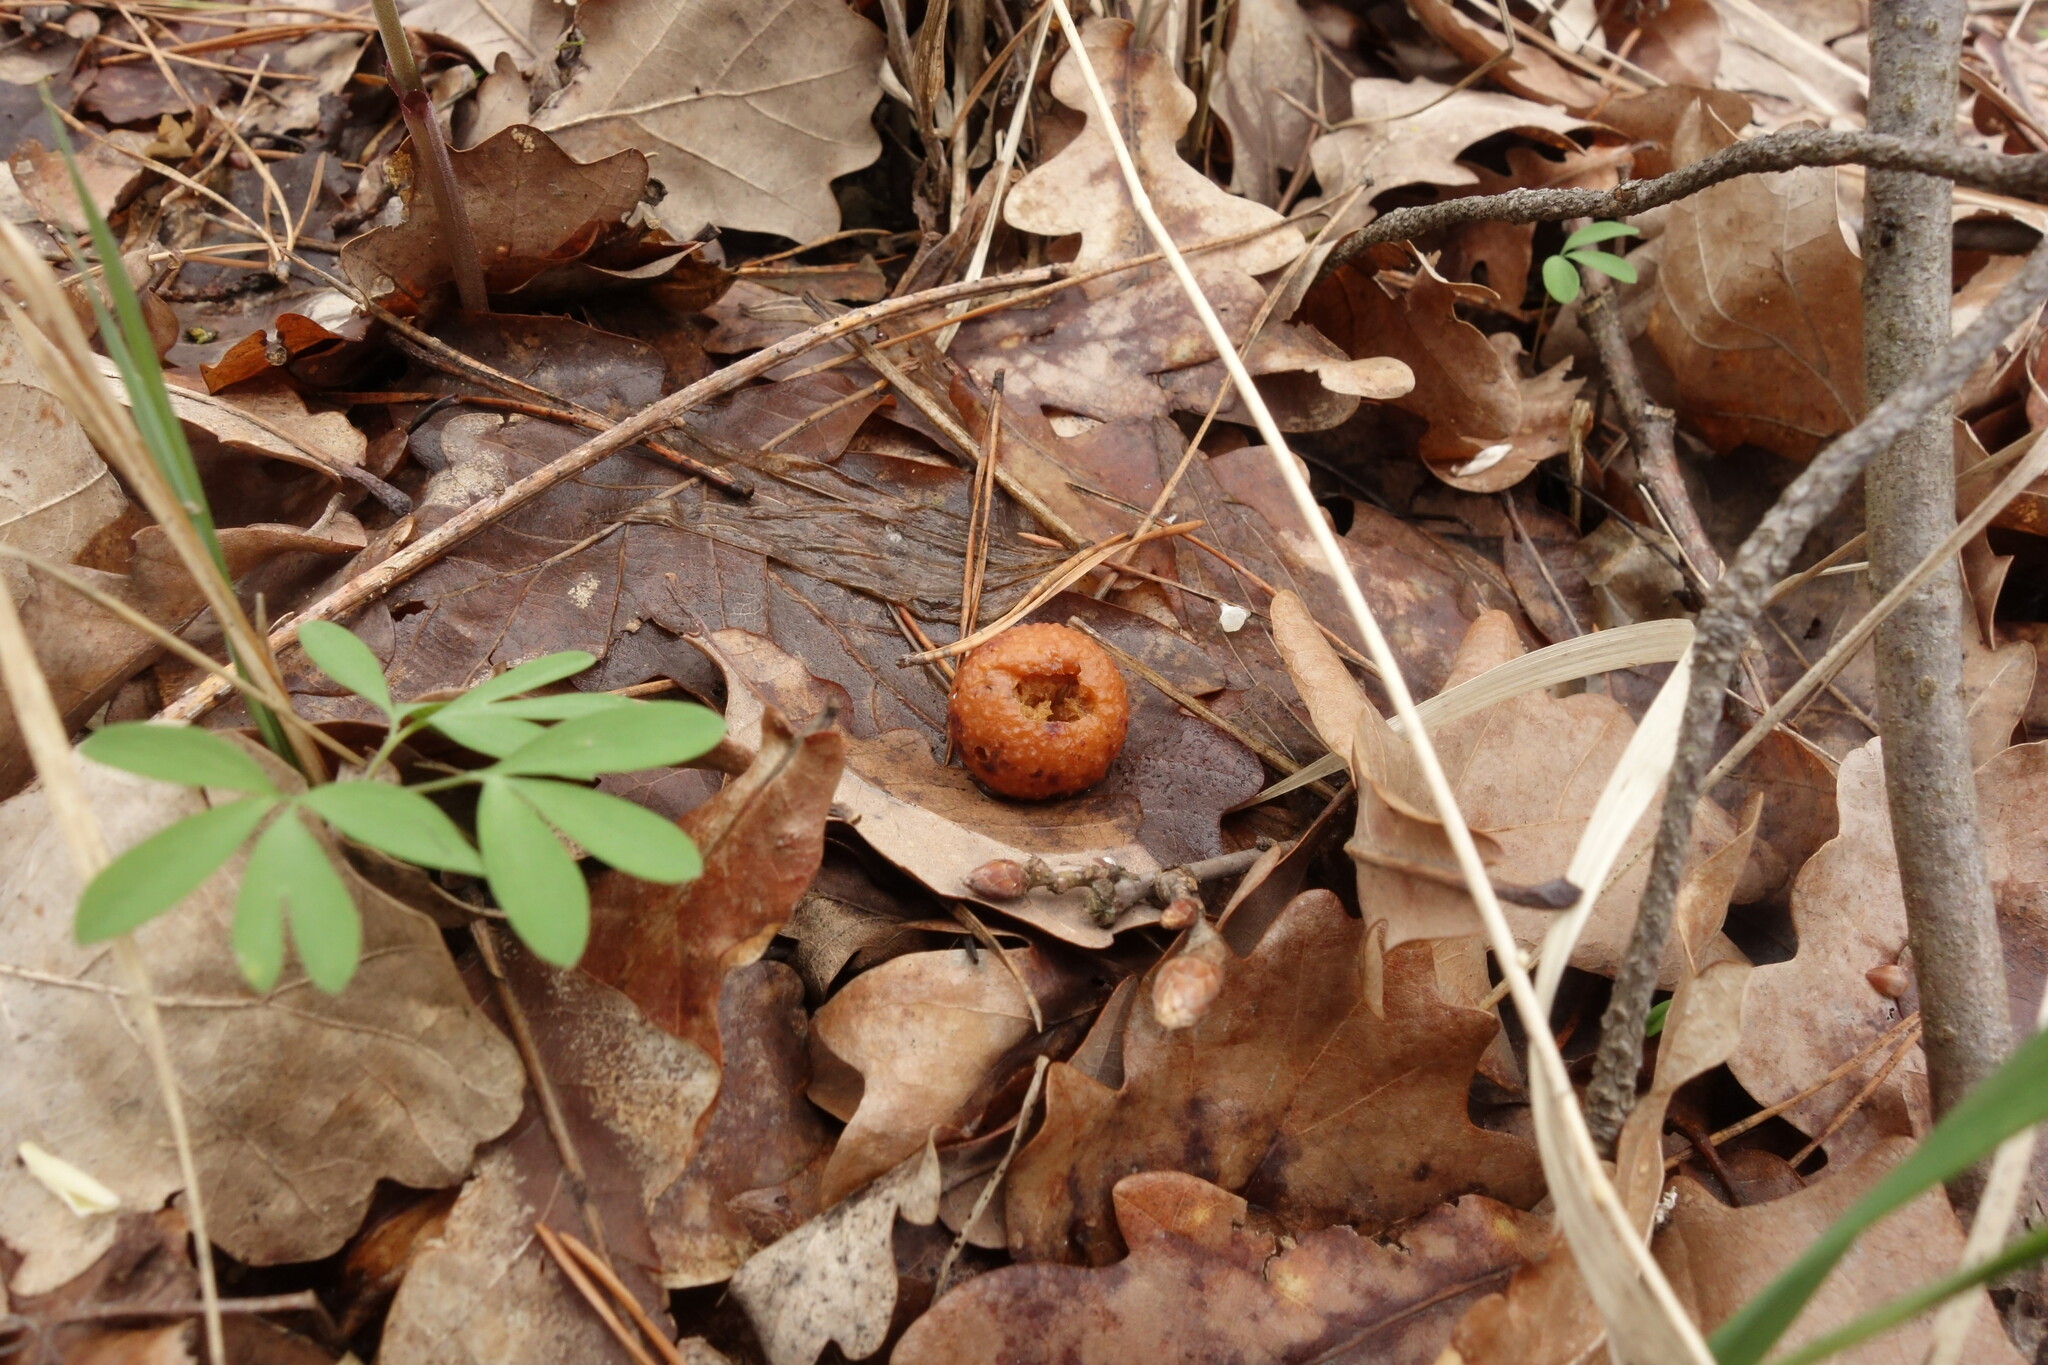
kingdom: Animalia
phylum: Arthropoda
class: Insecta
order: Hymenoptera
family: Cynipidae
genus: Cynips
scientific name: Cynips quercusfolii
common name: Cherry gall
